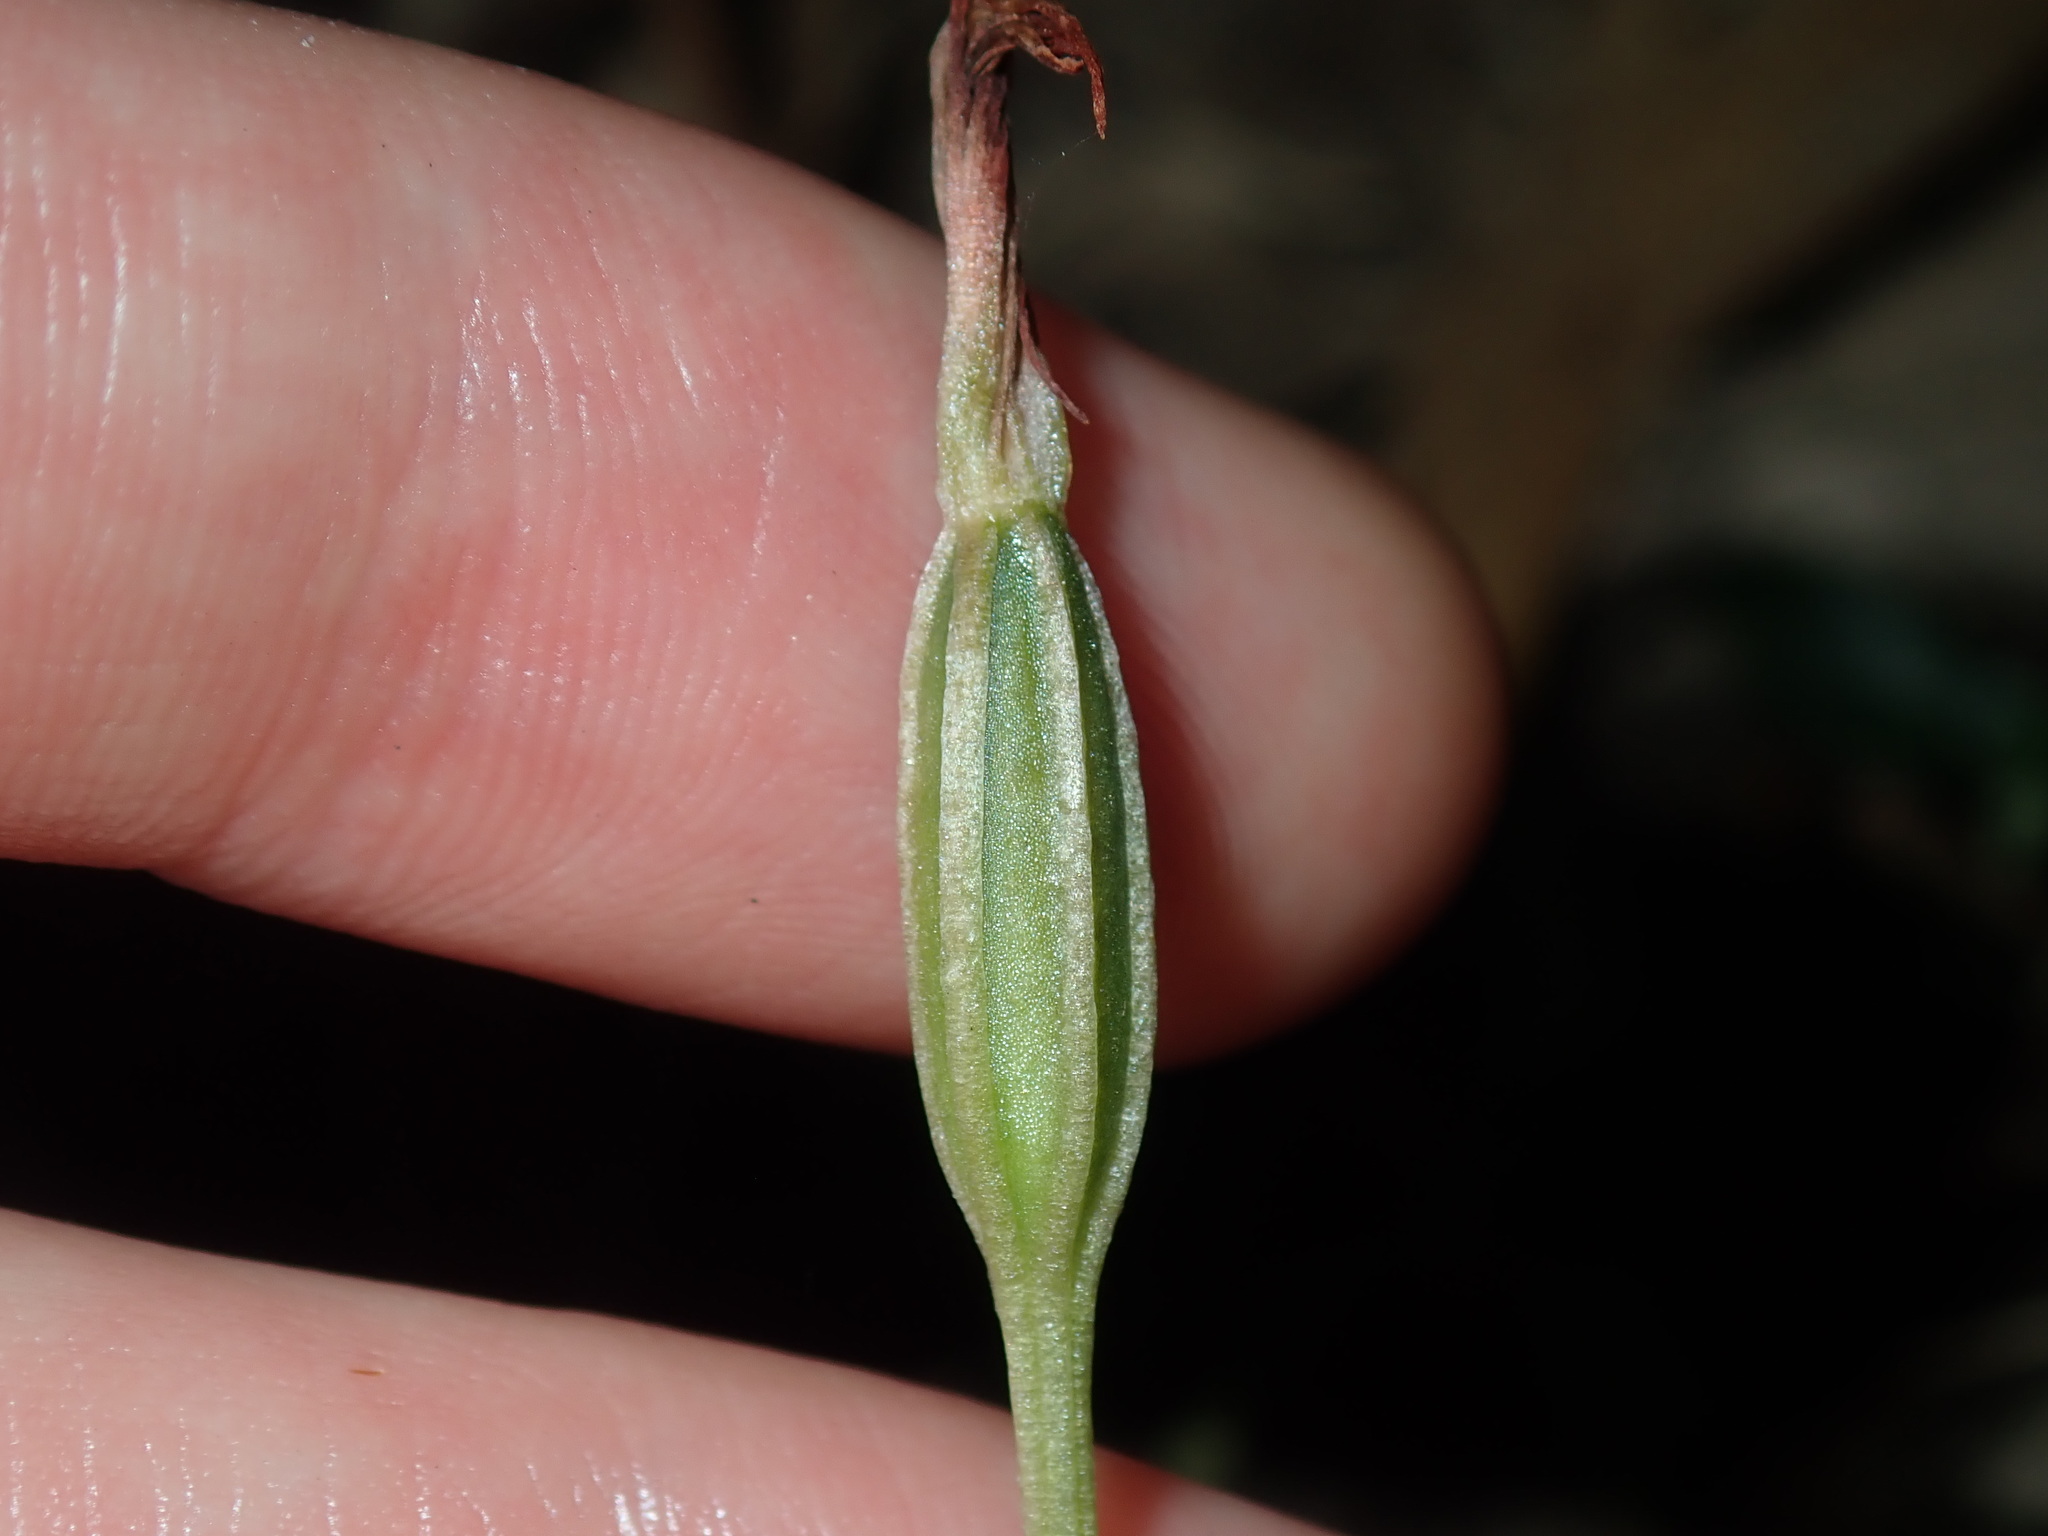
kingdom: Plantae
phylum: Tracheophyta
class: Liliopsida
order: Asparagales
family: Orchidaceae
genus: Pterostylis
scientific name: Pterostylis oblonga
